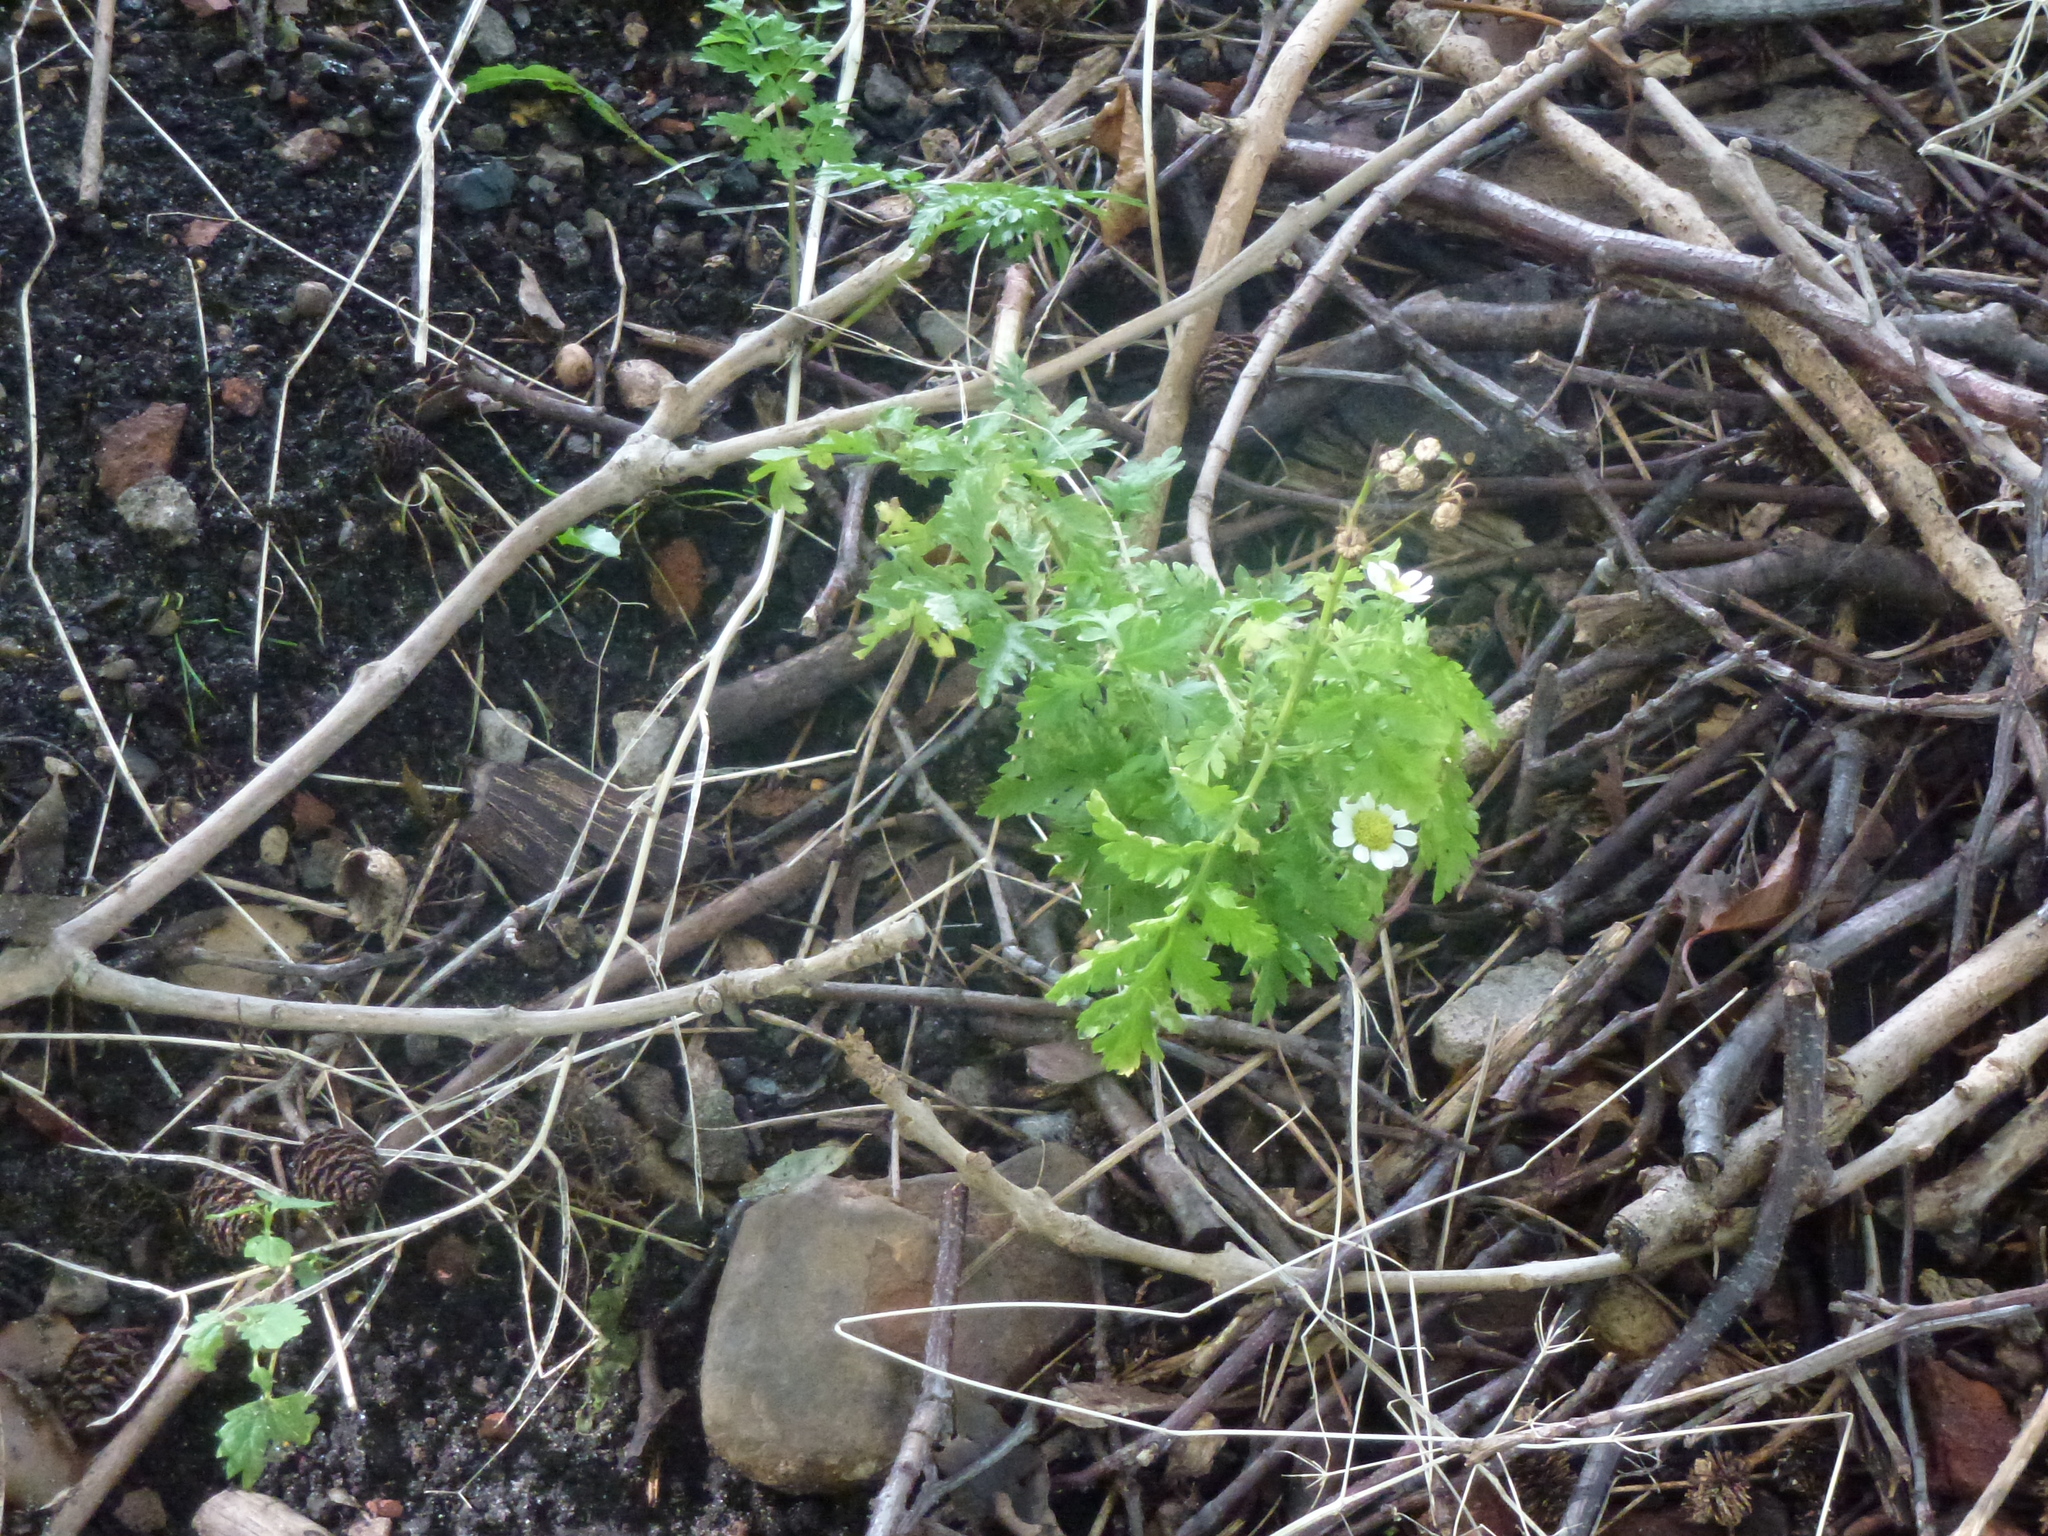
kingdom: Plantae
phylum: Tracheophyta
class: Magnoliopsida
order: Asterales
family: Asteraceae
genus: Tanacetum
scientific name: Tanacetum parthenium
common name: Feverfew
